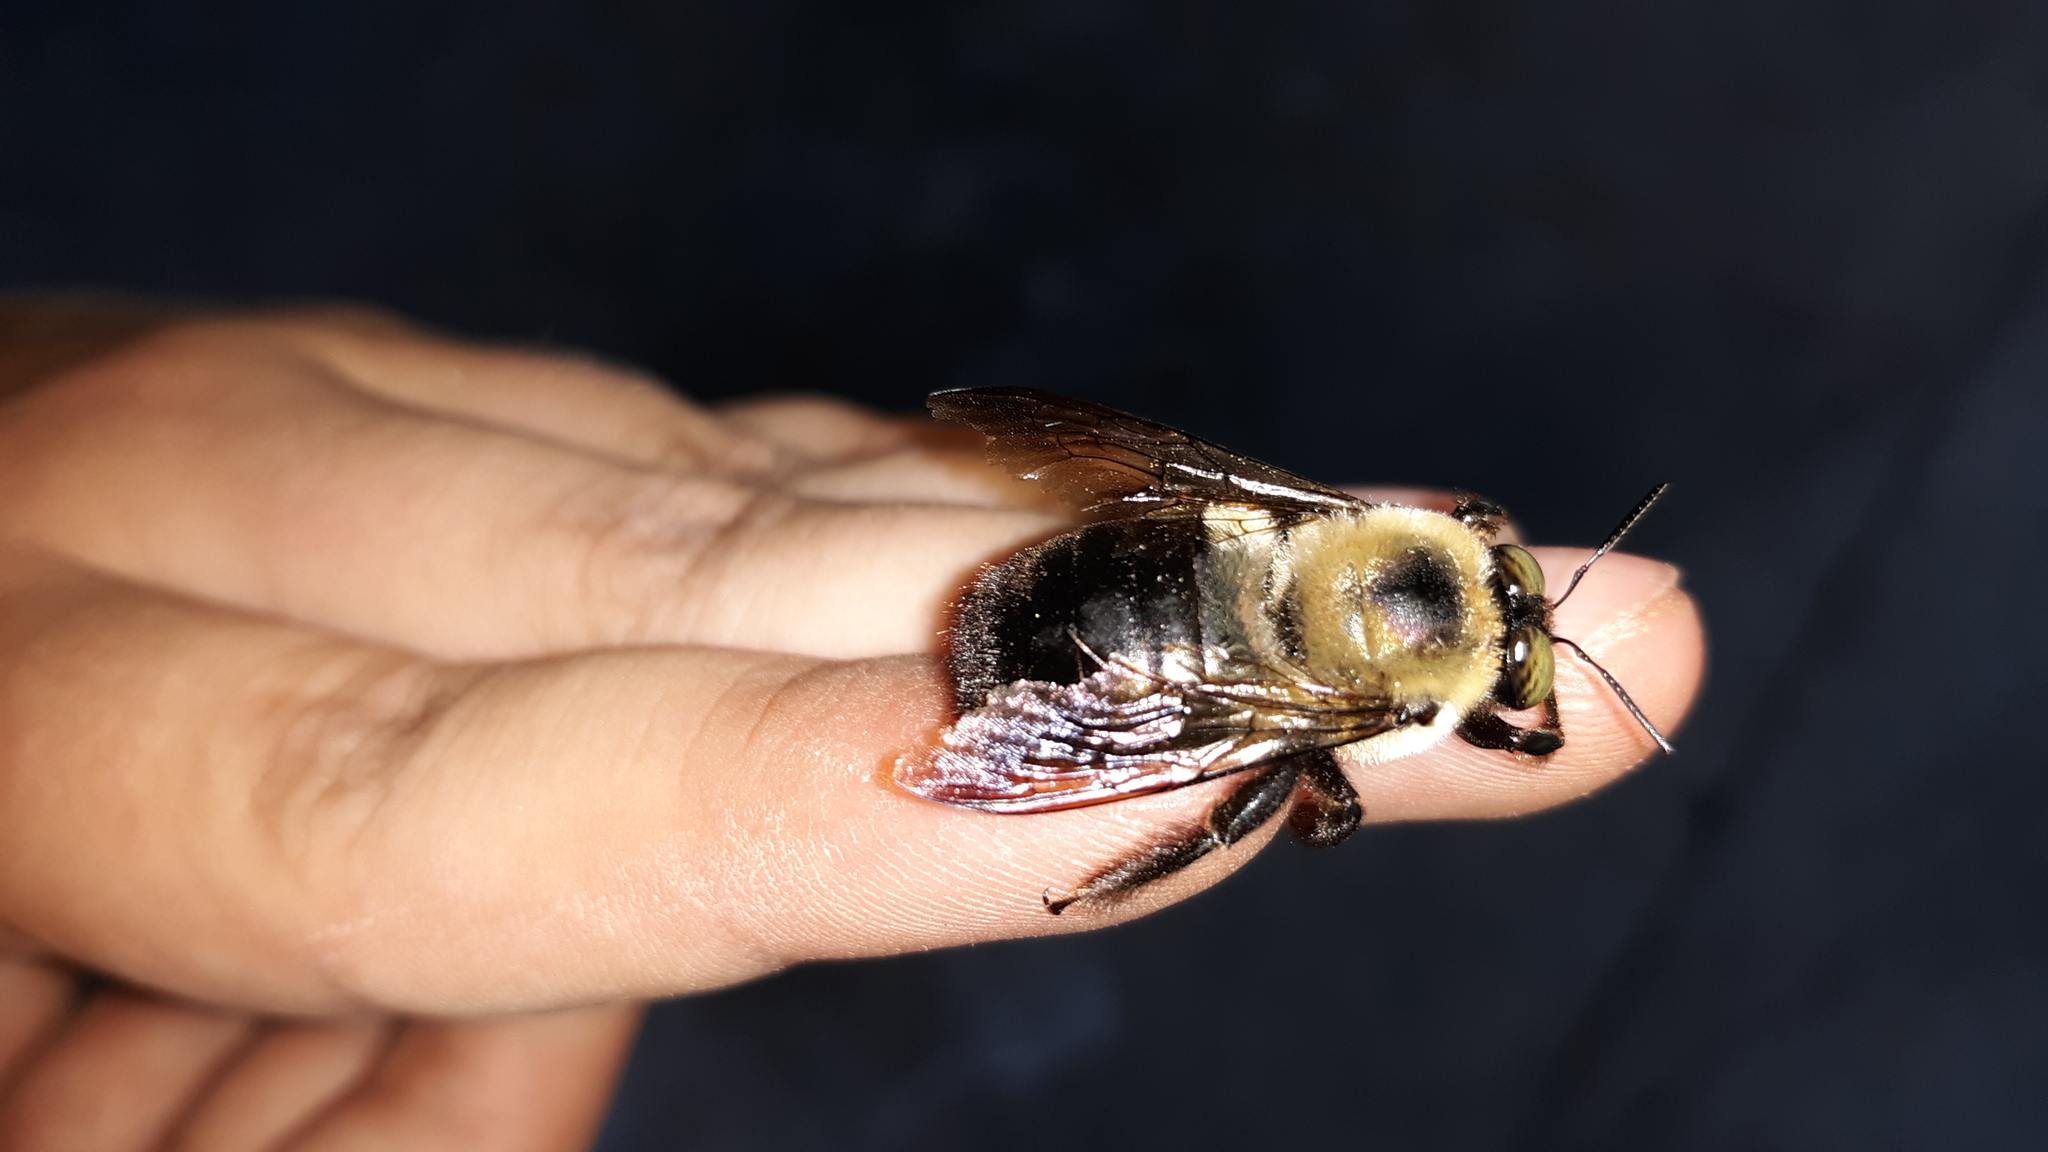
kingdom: Animalia
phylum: Arthropoda
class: Insecta
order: Hymenoptera
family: Apidae
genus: Xylocopa
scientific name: Xylocopa virginica
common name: Carpenter bee
